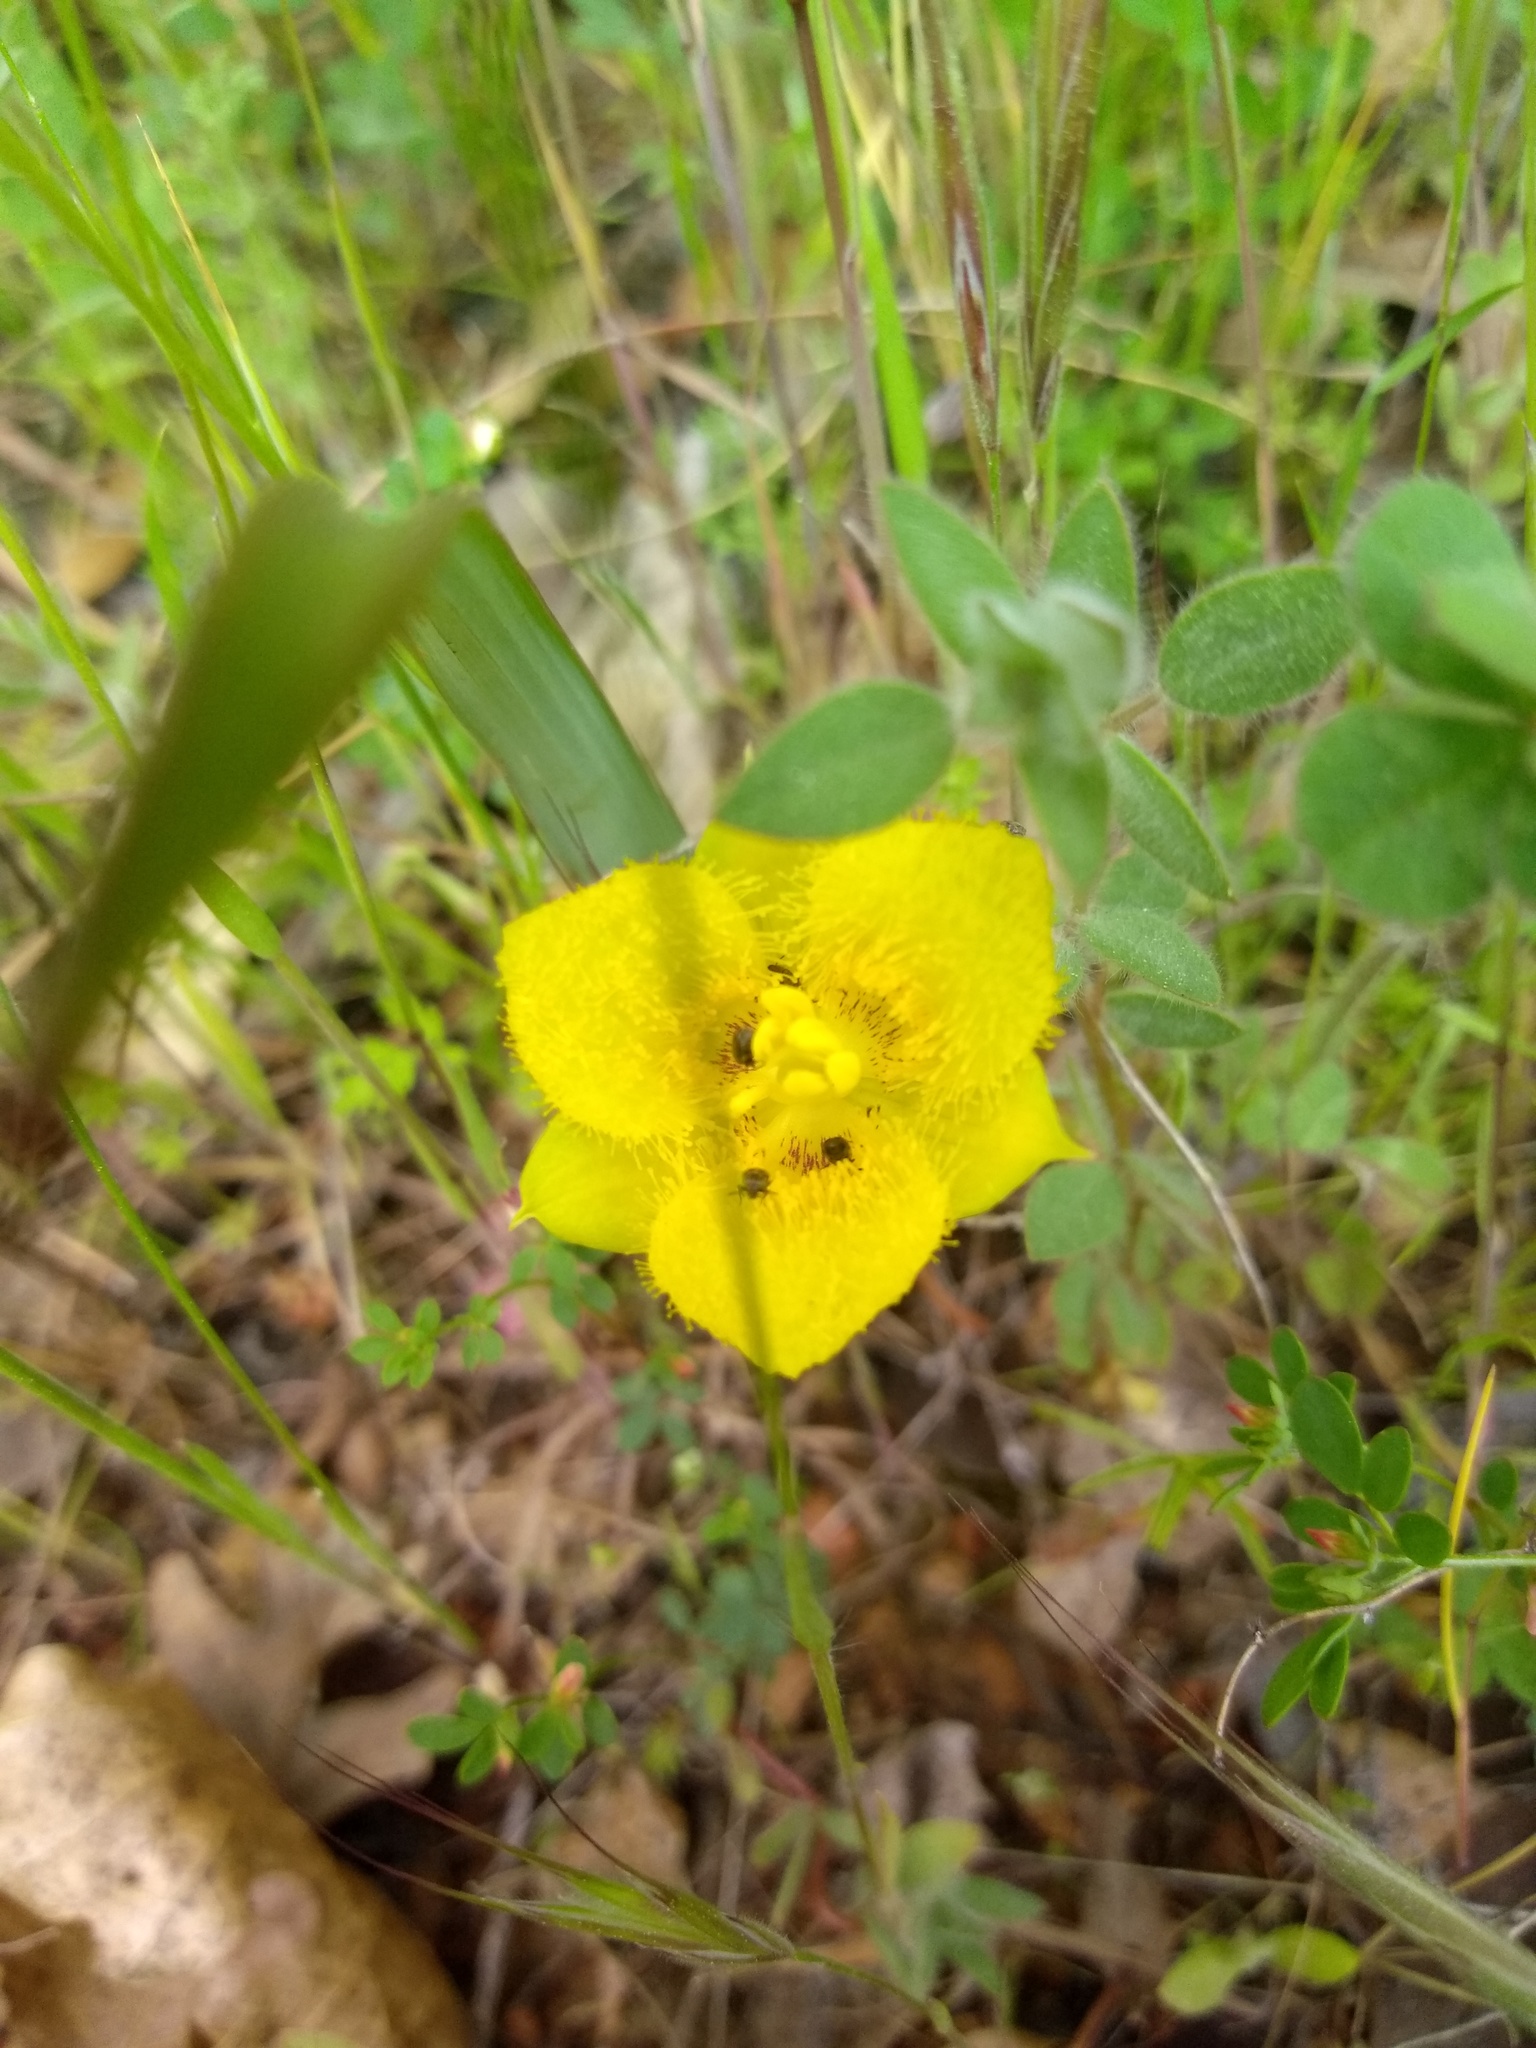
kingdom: Plantae
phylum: Tracheophyta
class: Liliopsida
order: Liliales
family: Liliaceae
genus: Calochortus
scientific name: Calochortus monophyllus
